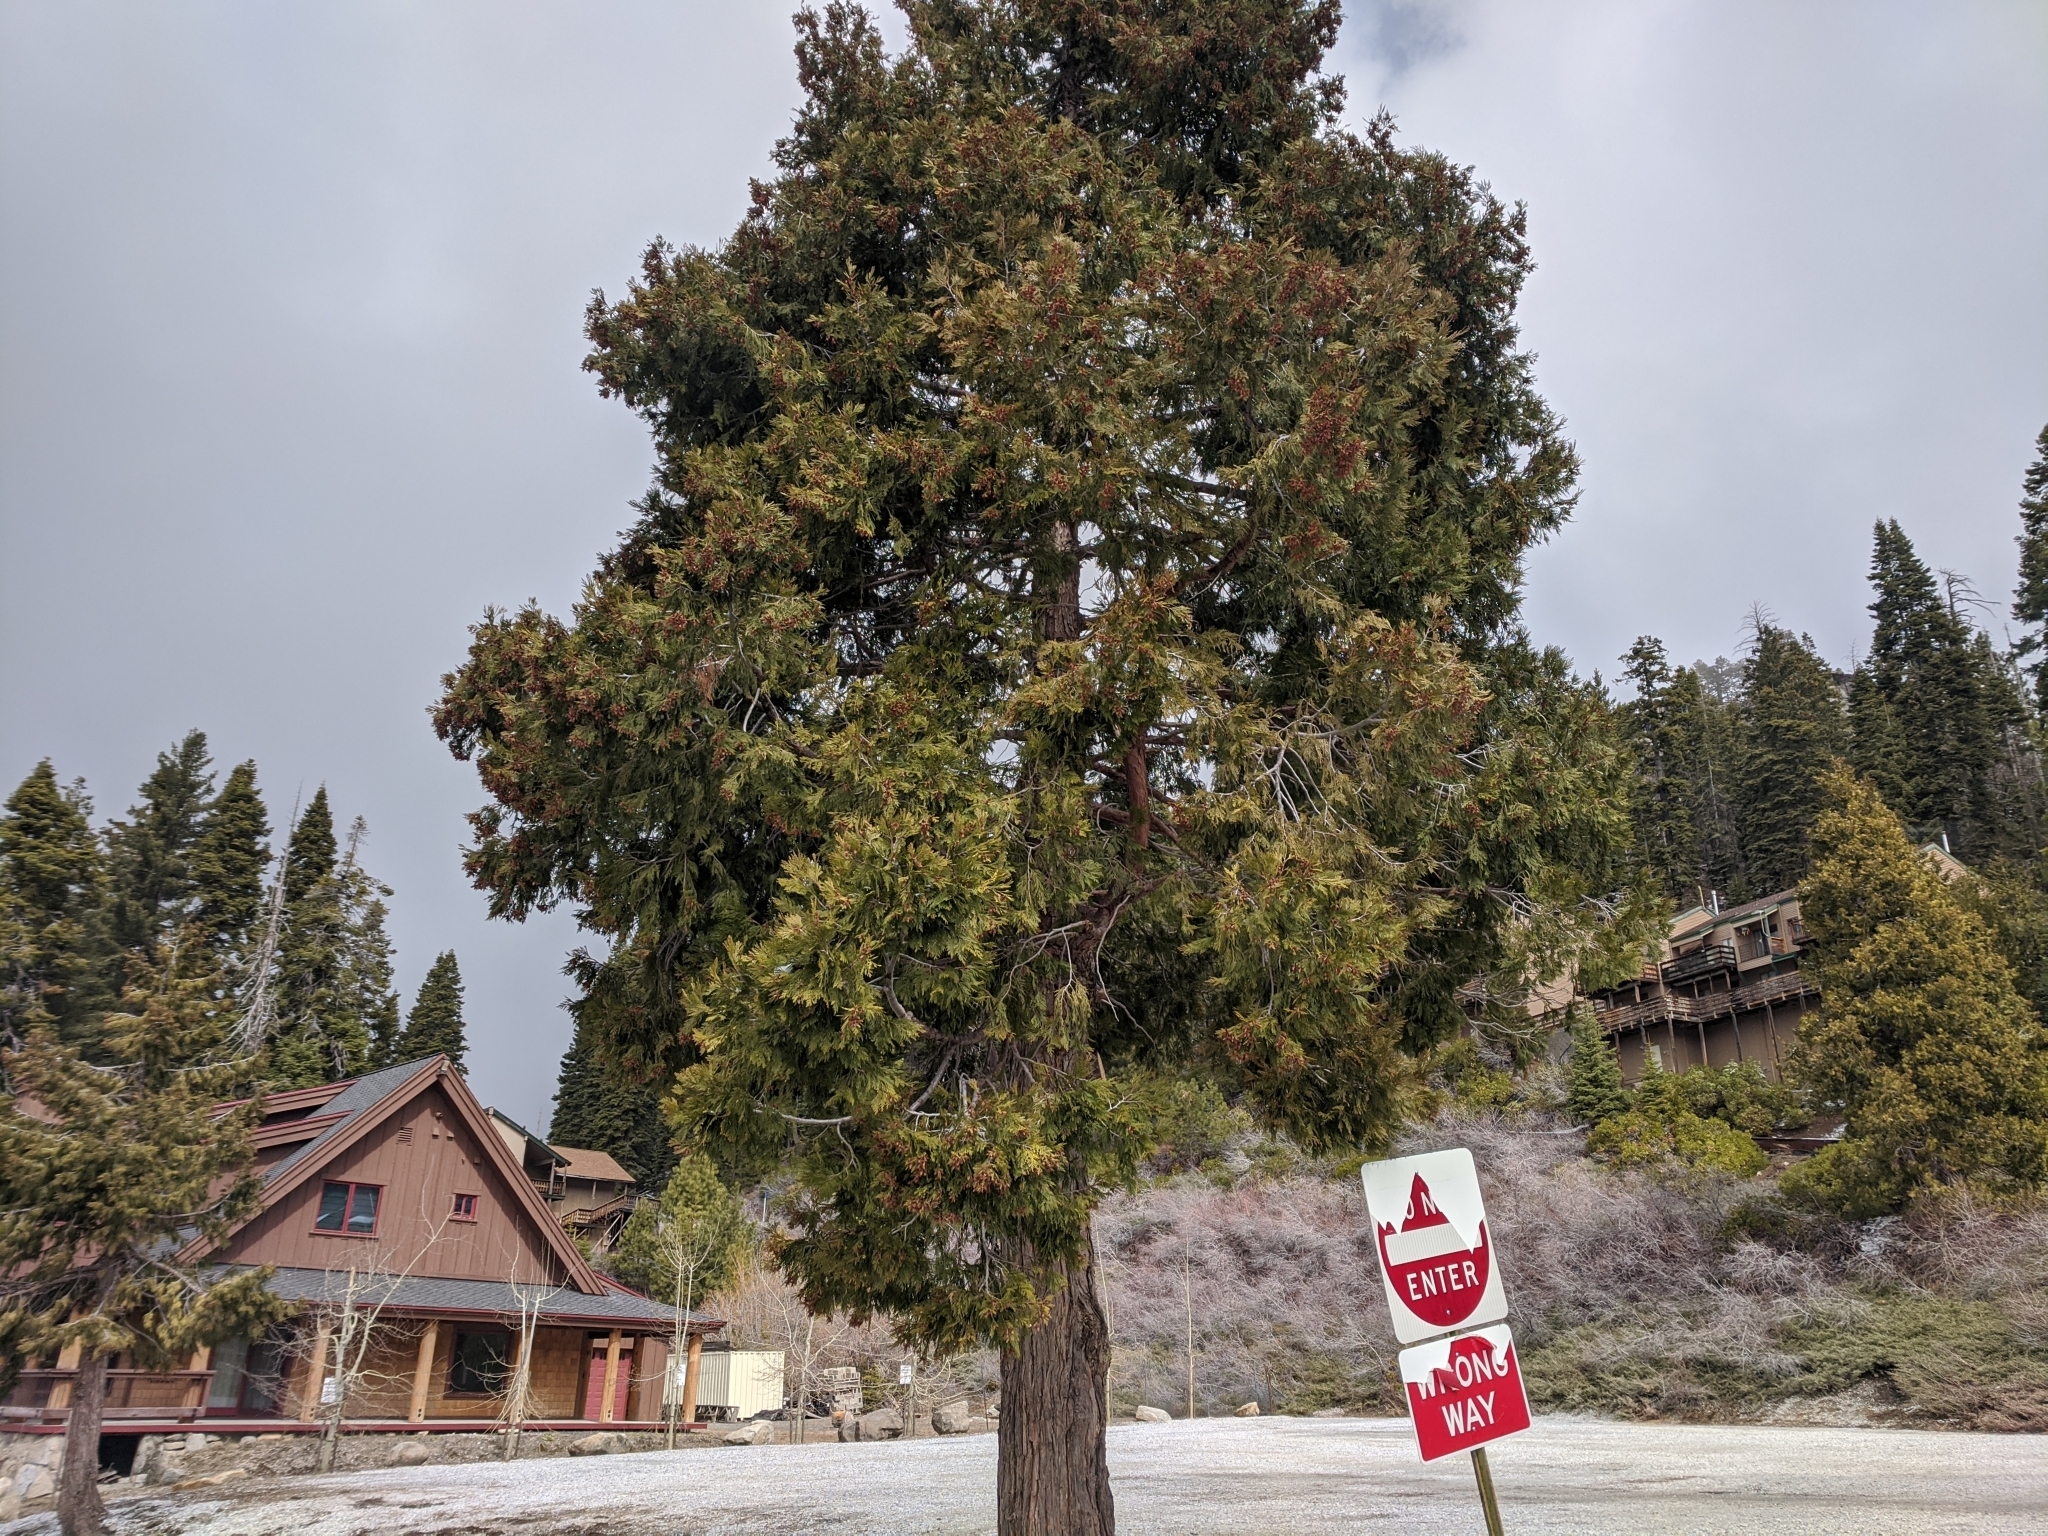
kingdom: Plantae
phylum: Tracheophyta
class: Pinopsida
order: Pinales
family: Cupressaceae
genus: Calocedrus
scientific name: Calocedrus decurrens
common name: Californian incense-cedar
